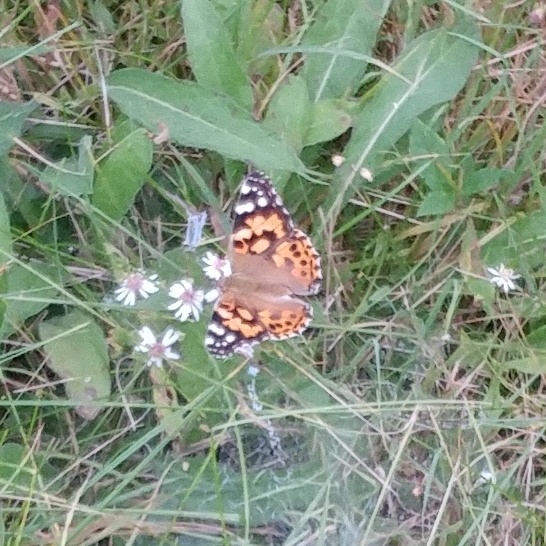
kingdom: Animalia
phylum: Arthropoda
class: Insecta
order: Lepidoptera
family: Nymphalidae
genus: Vanessa
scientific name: Vanessa cardui
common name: Painted lady
